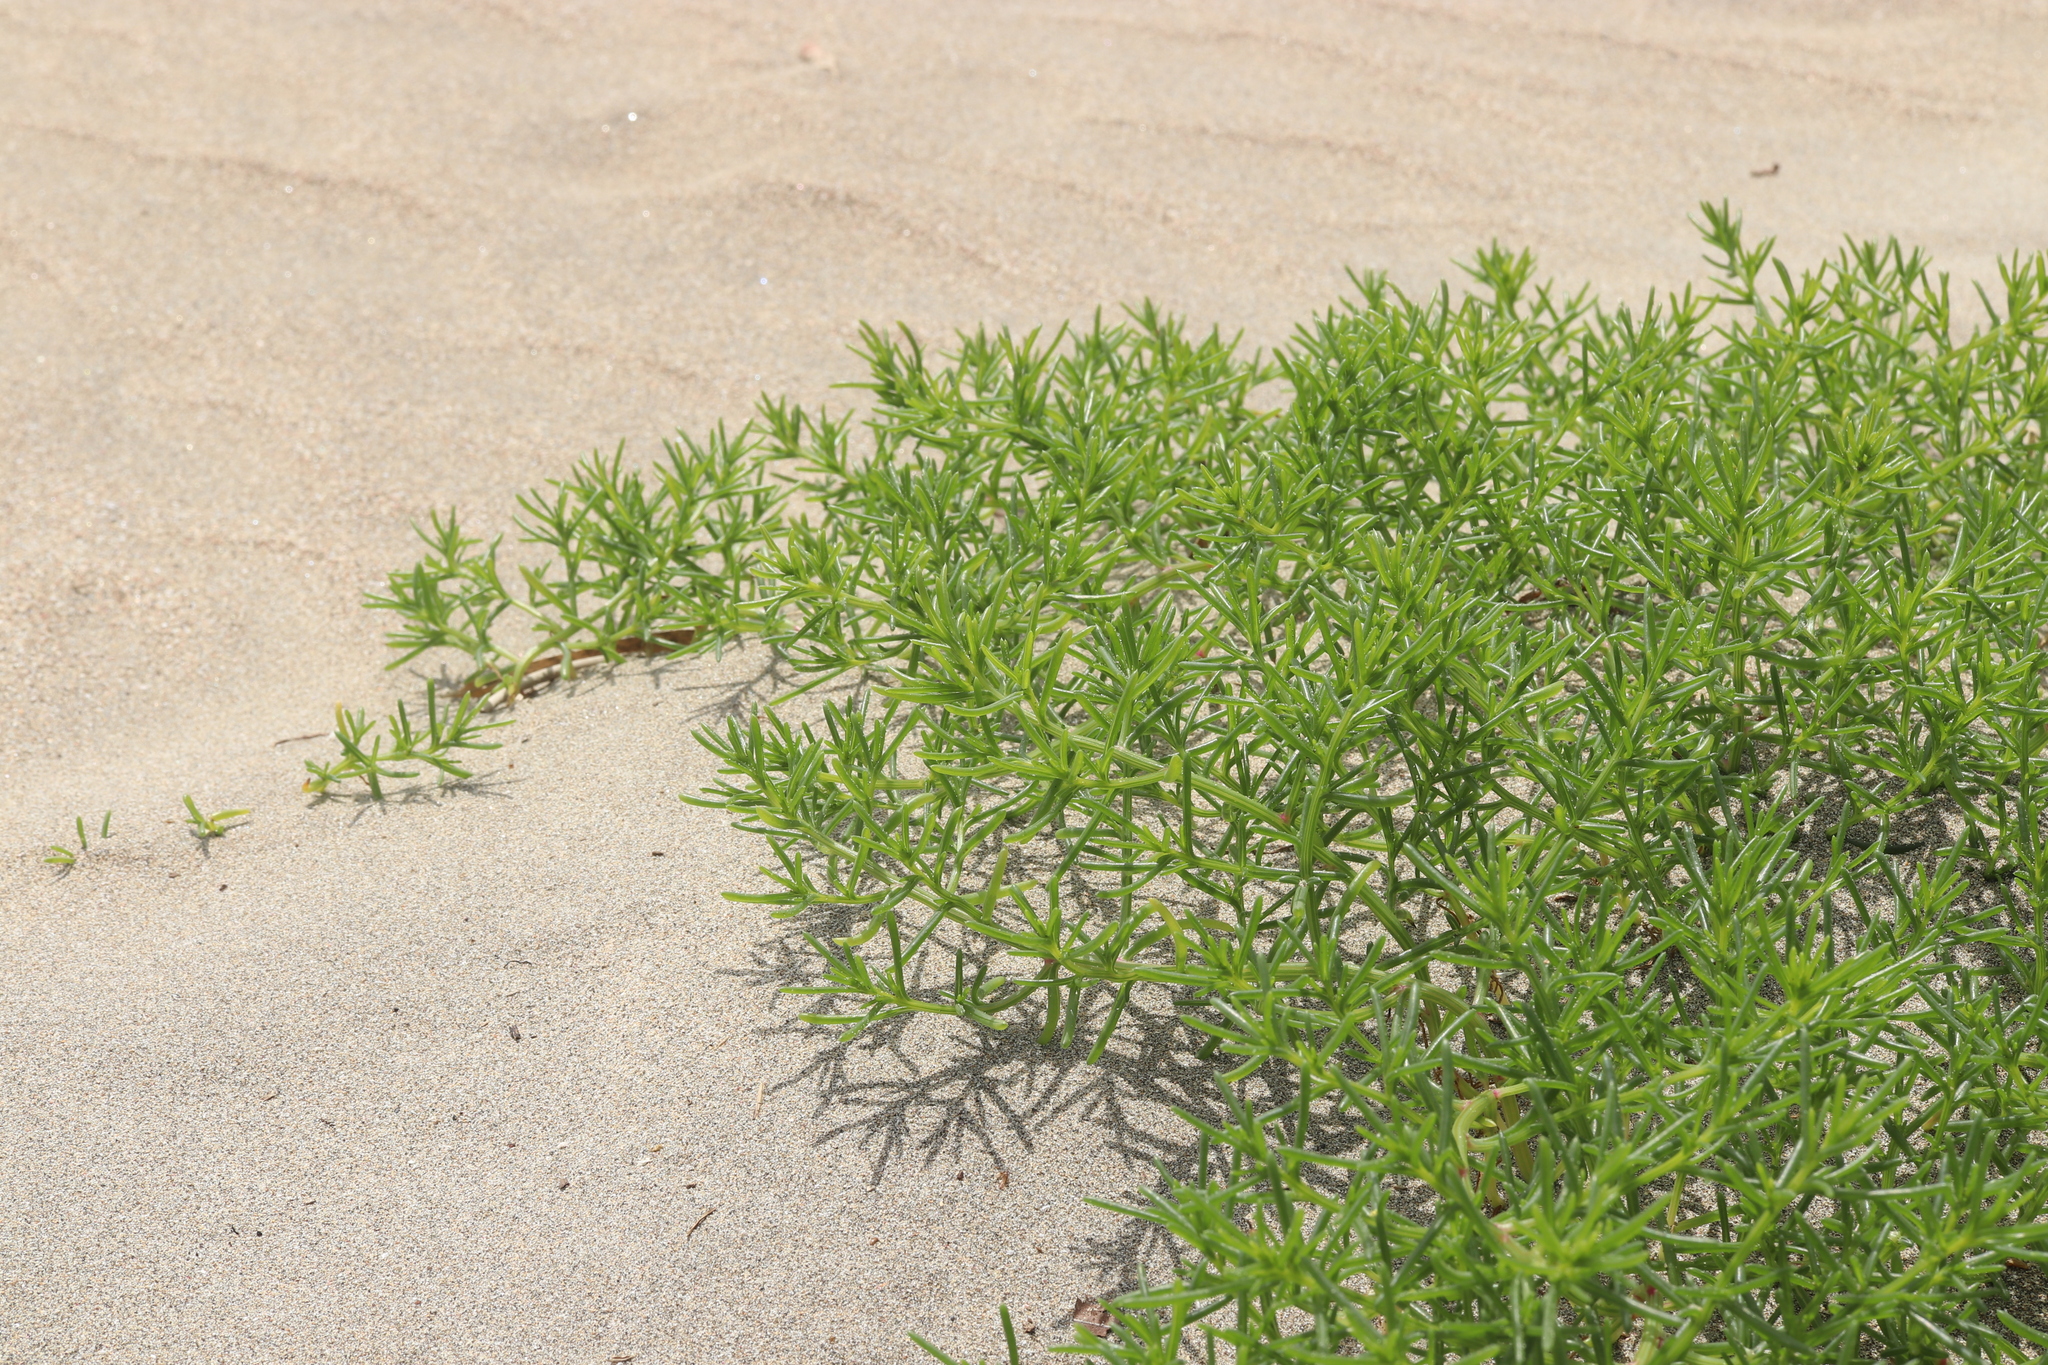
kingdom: Plantae
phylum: Tracheophyta
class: Magnoliopsida
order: Caryophyllales
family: Amaranthaceae
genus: Salsola
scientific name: Salsola komarovii
